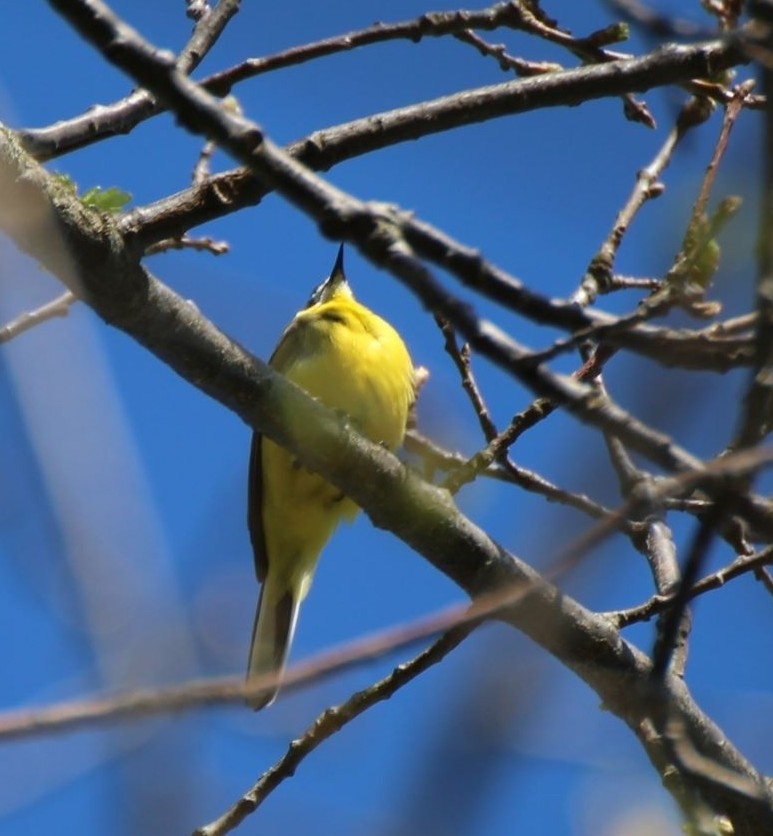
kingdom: Animalia
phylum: Chordata
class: Aves
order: Passeriformes
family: Motacillidae
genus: Motacilla
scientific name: Motacilla flava
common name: Western yellow wagtail
